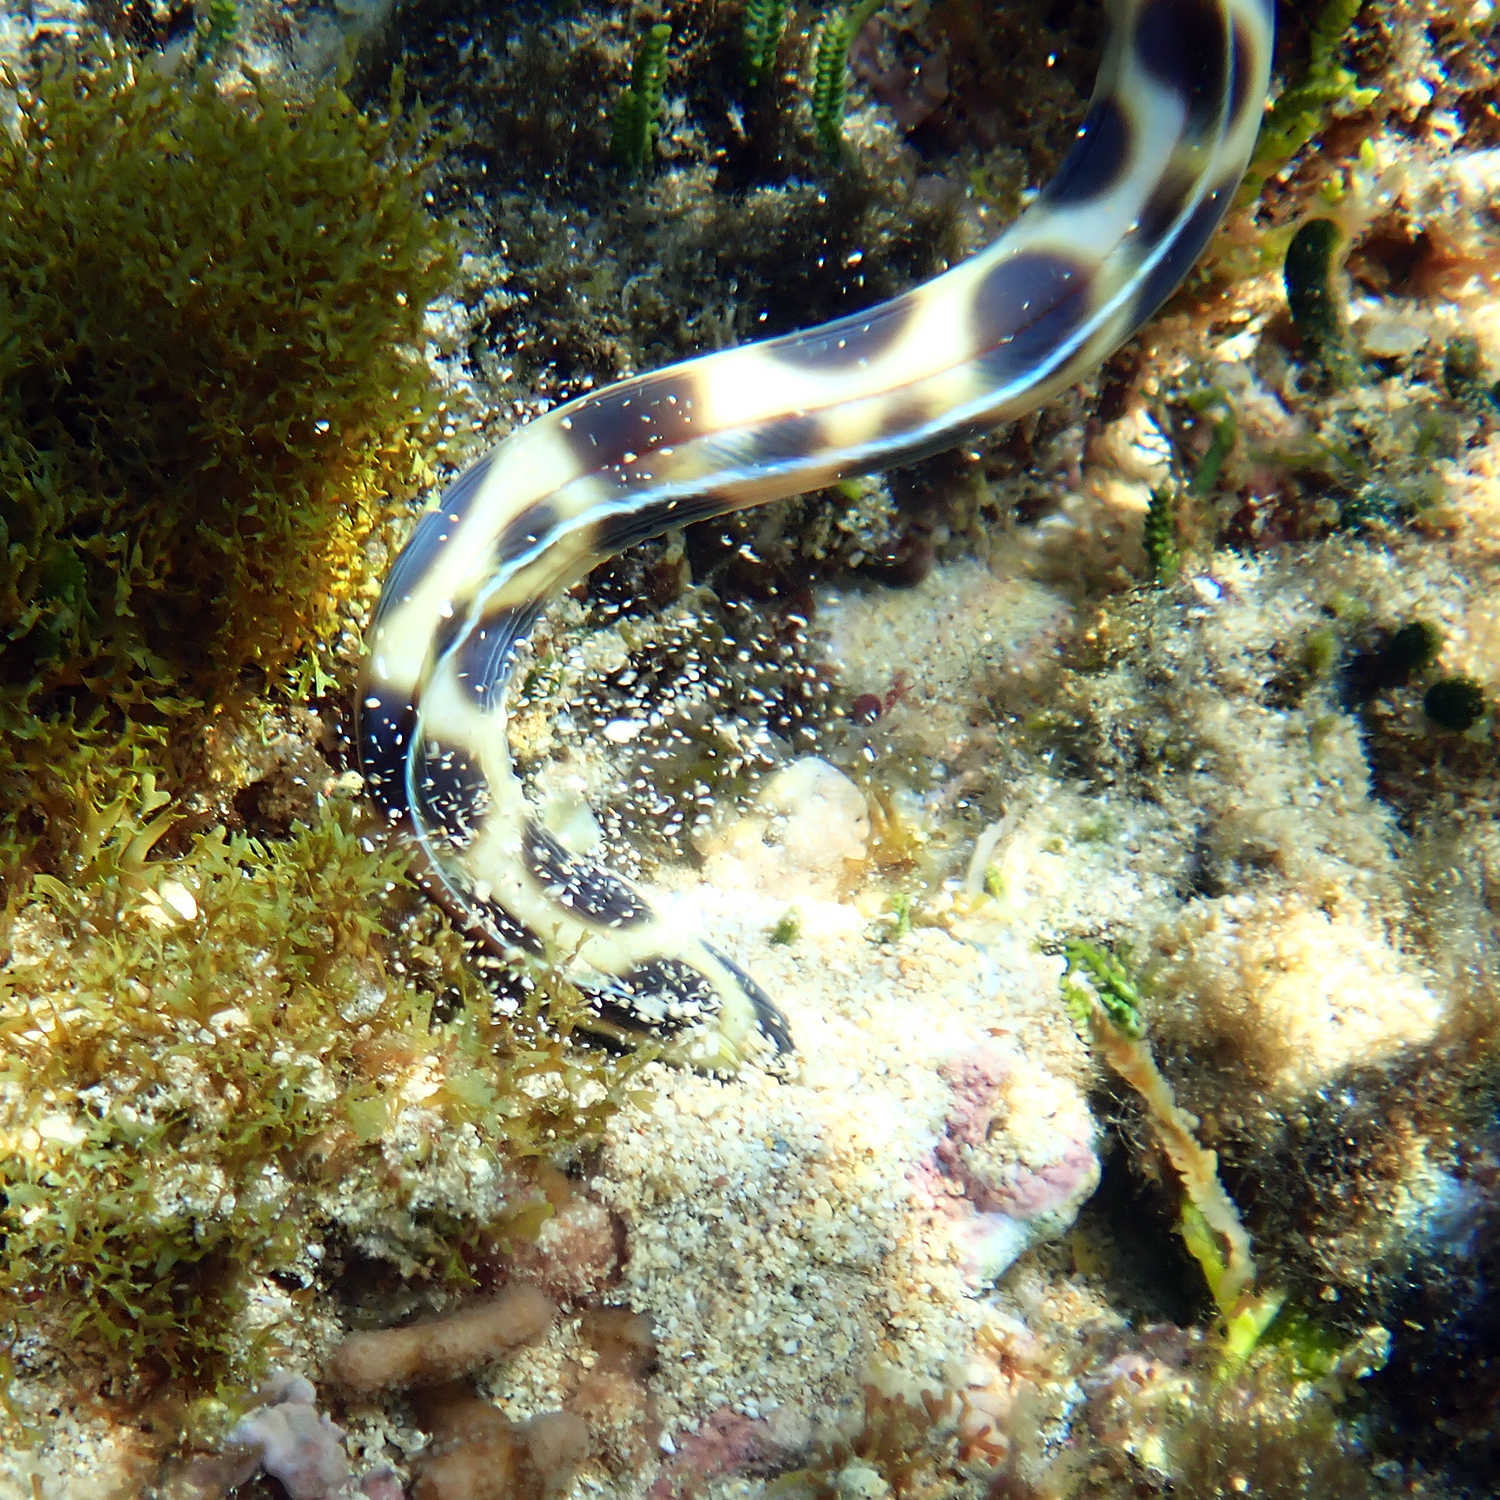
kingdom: Animalia
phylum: Chordata
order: Anguilliformes
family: Ophichthidae
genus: Myrichthys
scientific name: Myrichthys maculosus
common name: Spotted snake eel
